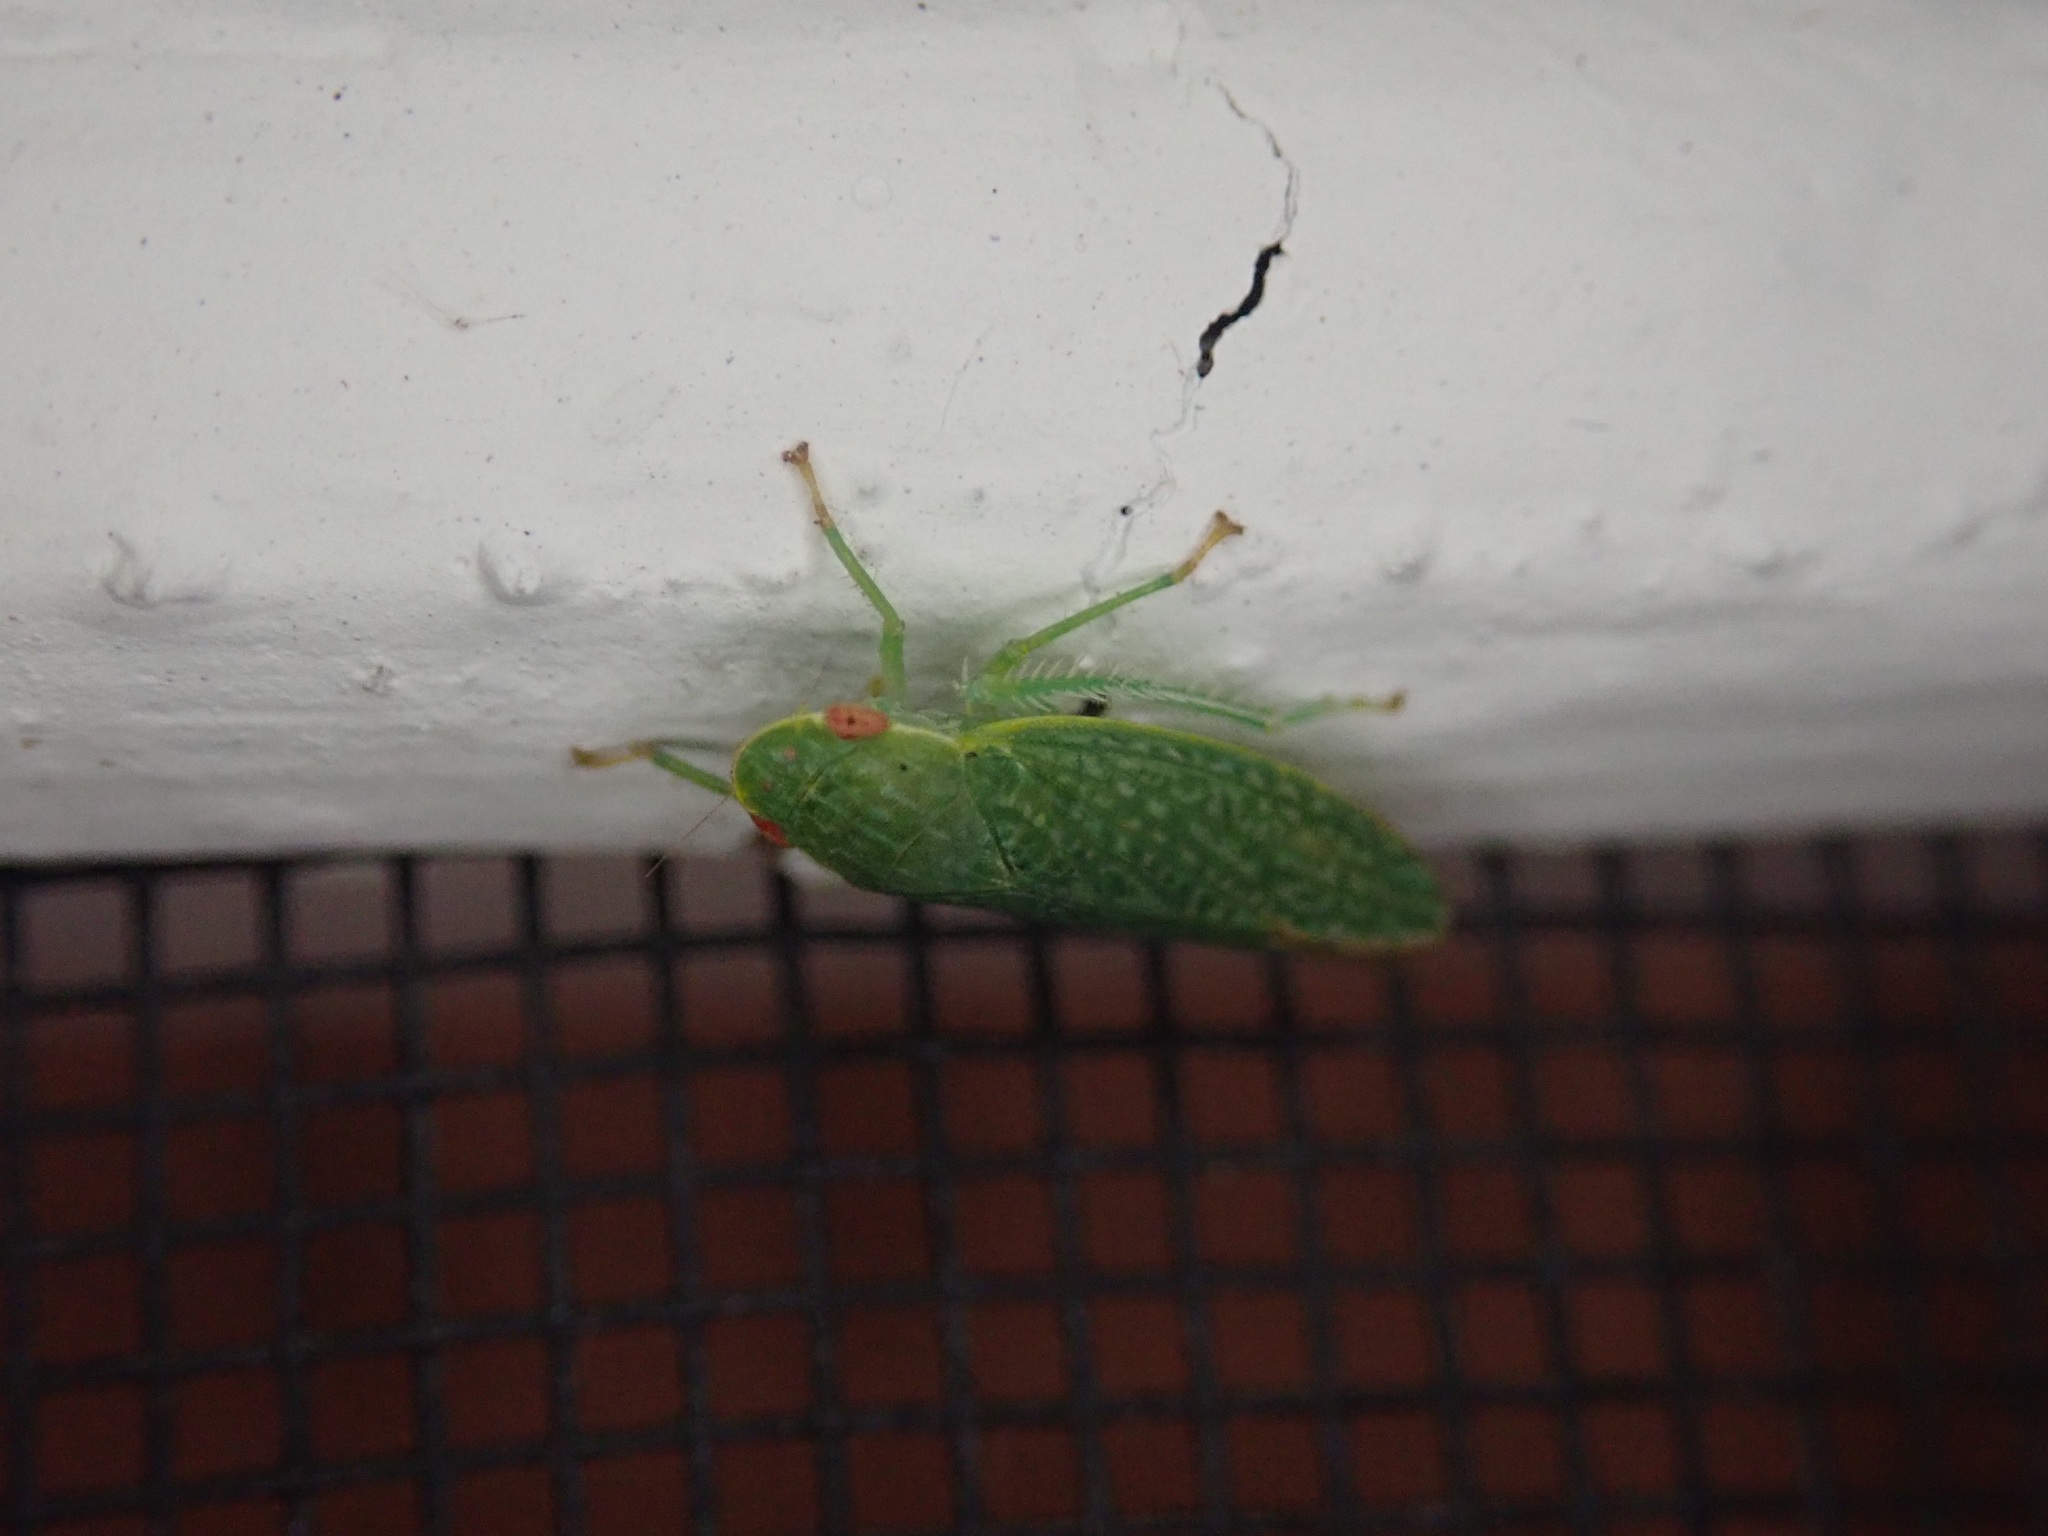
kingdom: Animalia
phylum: Arthropoda
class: Insecta
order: Hemiptera
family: Cicadellidae
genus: Rugosana
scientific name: Rugosana querci
